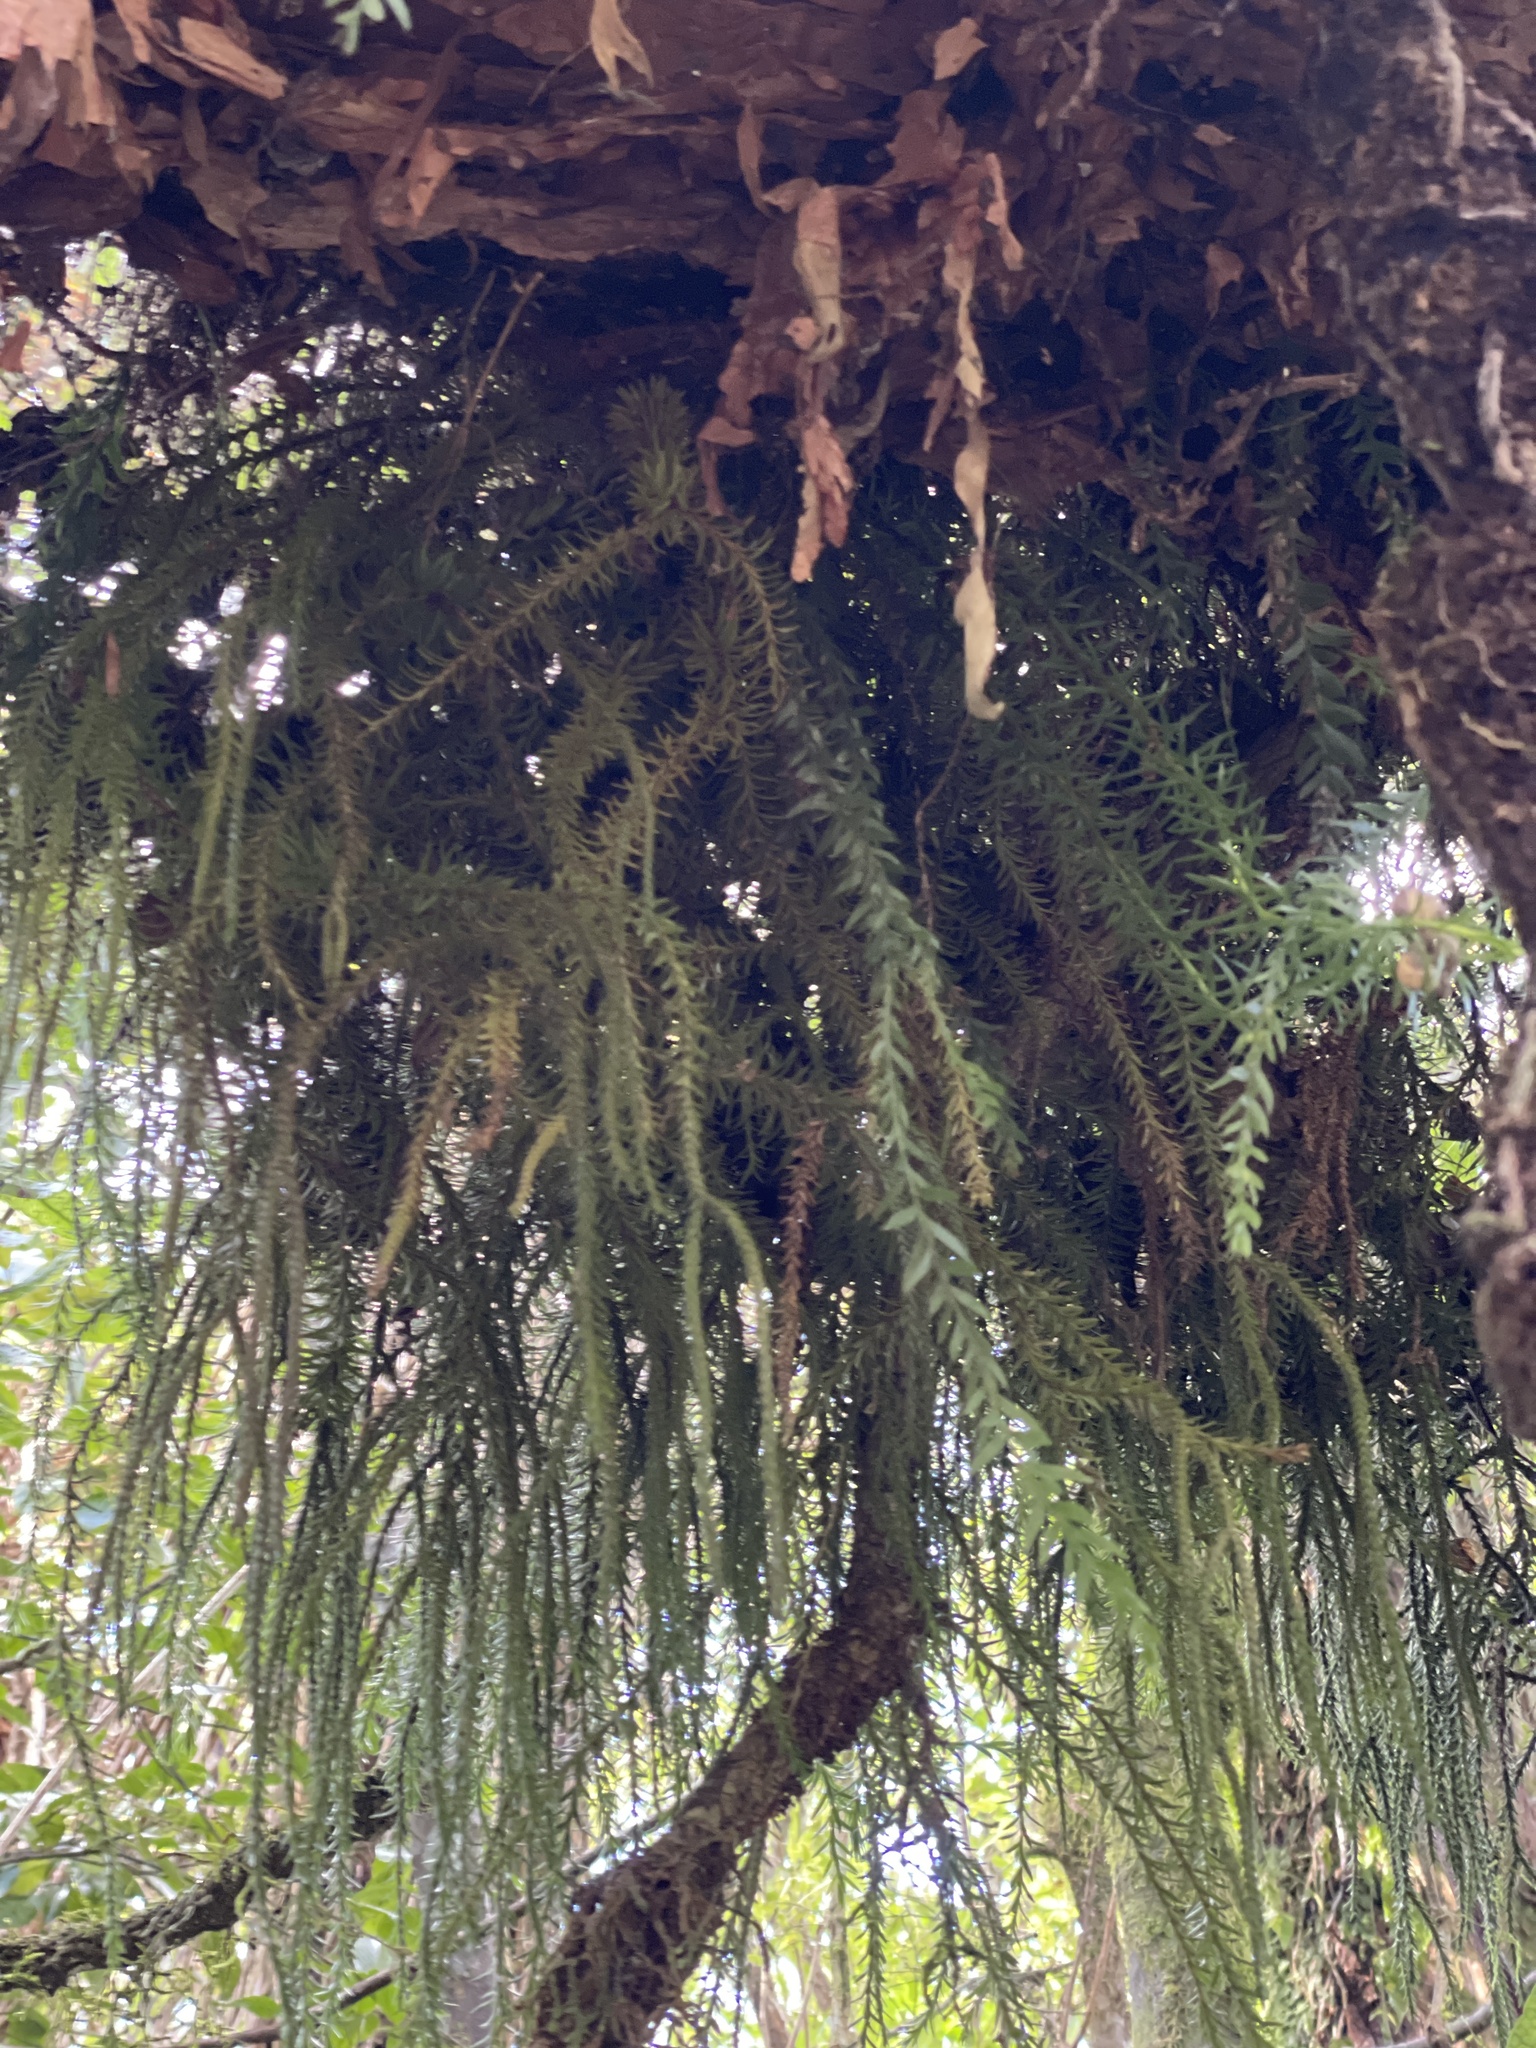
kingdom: Plantae
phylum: Tracheophyta
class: Lycopodiopsida
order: Lycopodiales
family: Lycopodiaceae
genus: Phlegmariurus
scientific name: Phlegmariurus varius
